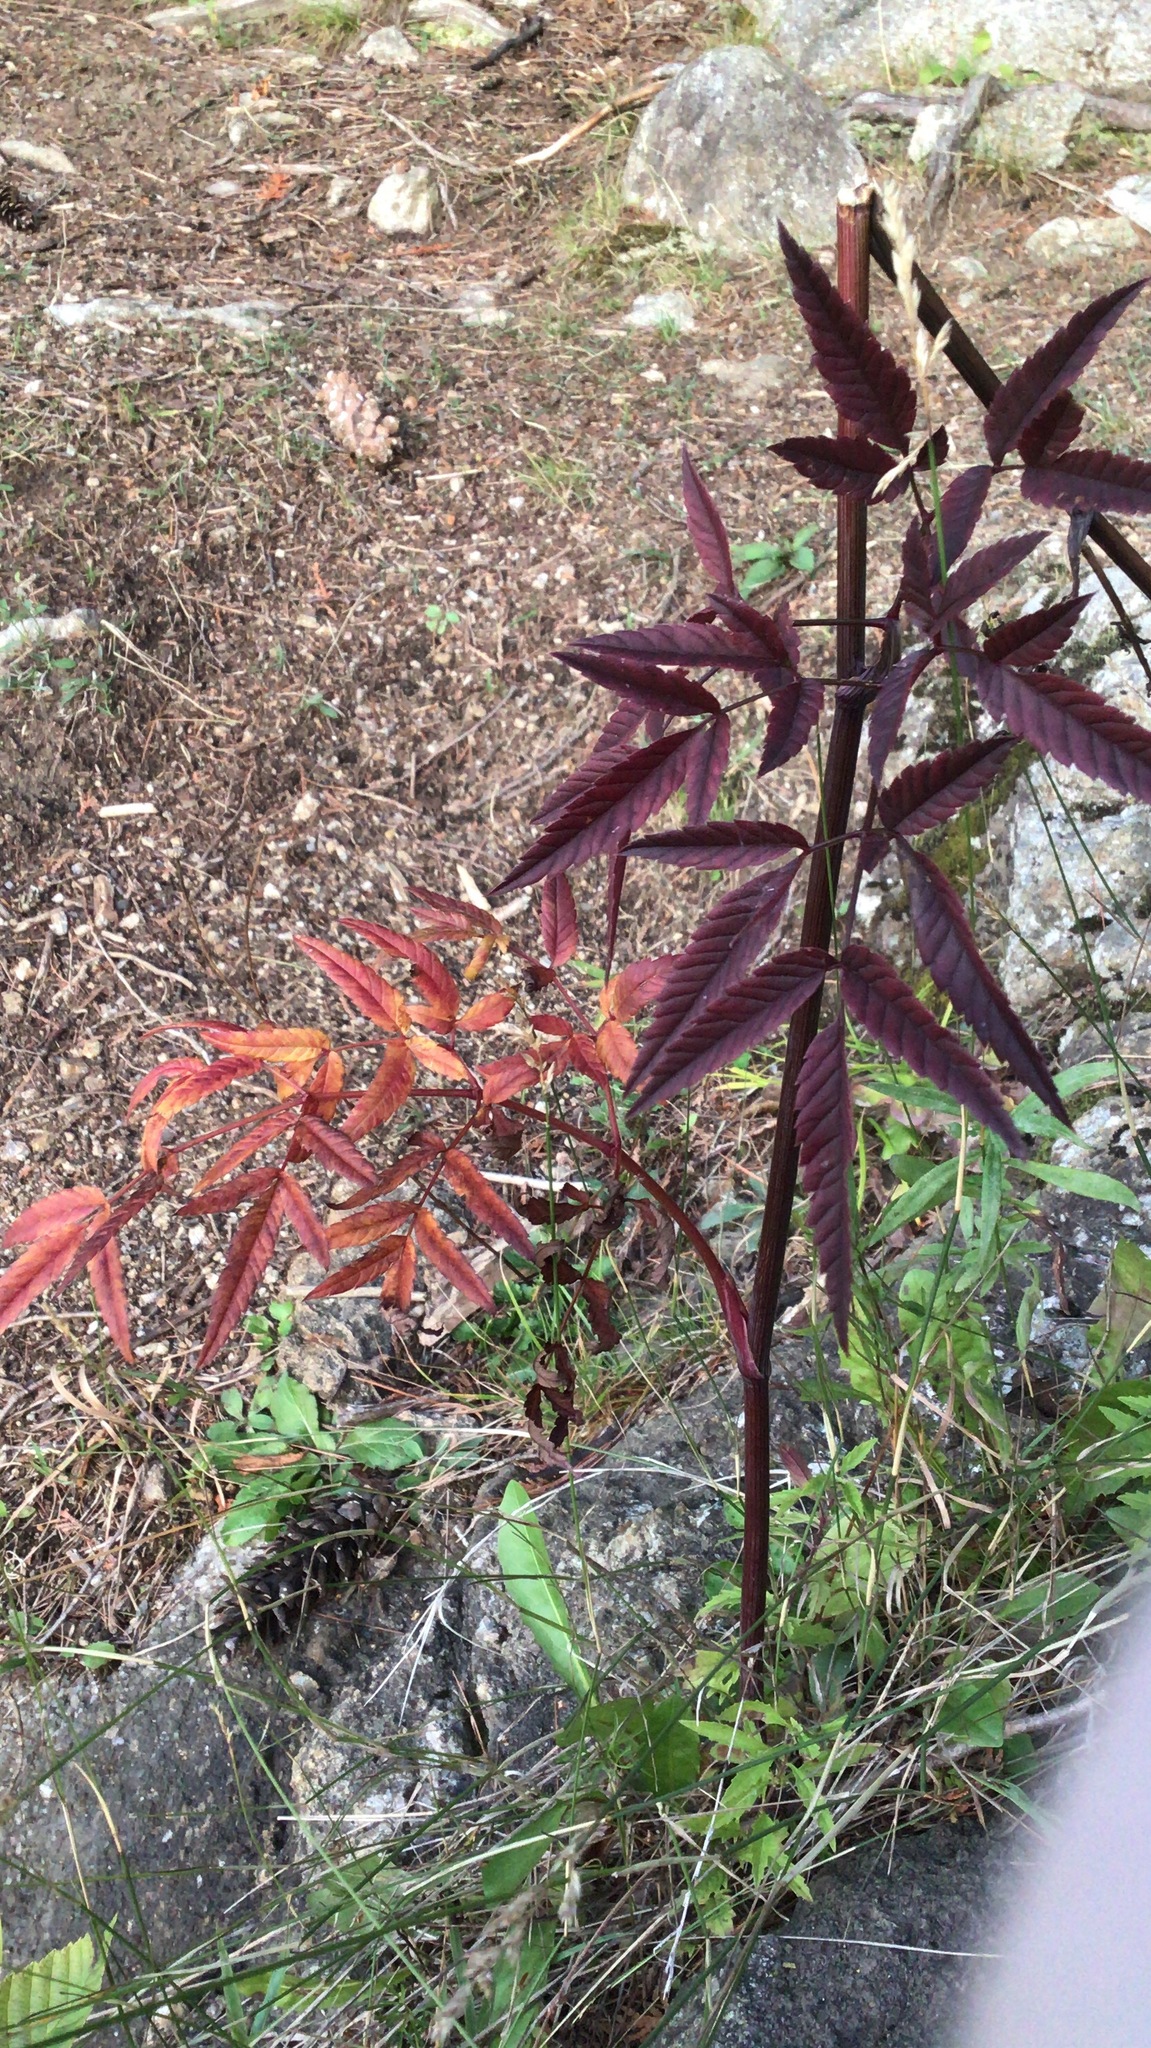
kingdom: Plantae
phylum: Tracheophyta
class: Magnoliopsida
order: Apiales
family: Apiaceae
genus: Cicuta
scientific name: Cicuta maculata
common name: Spotted cowbane
